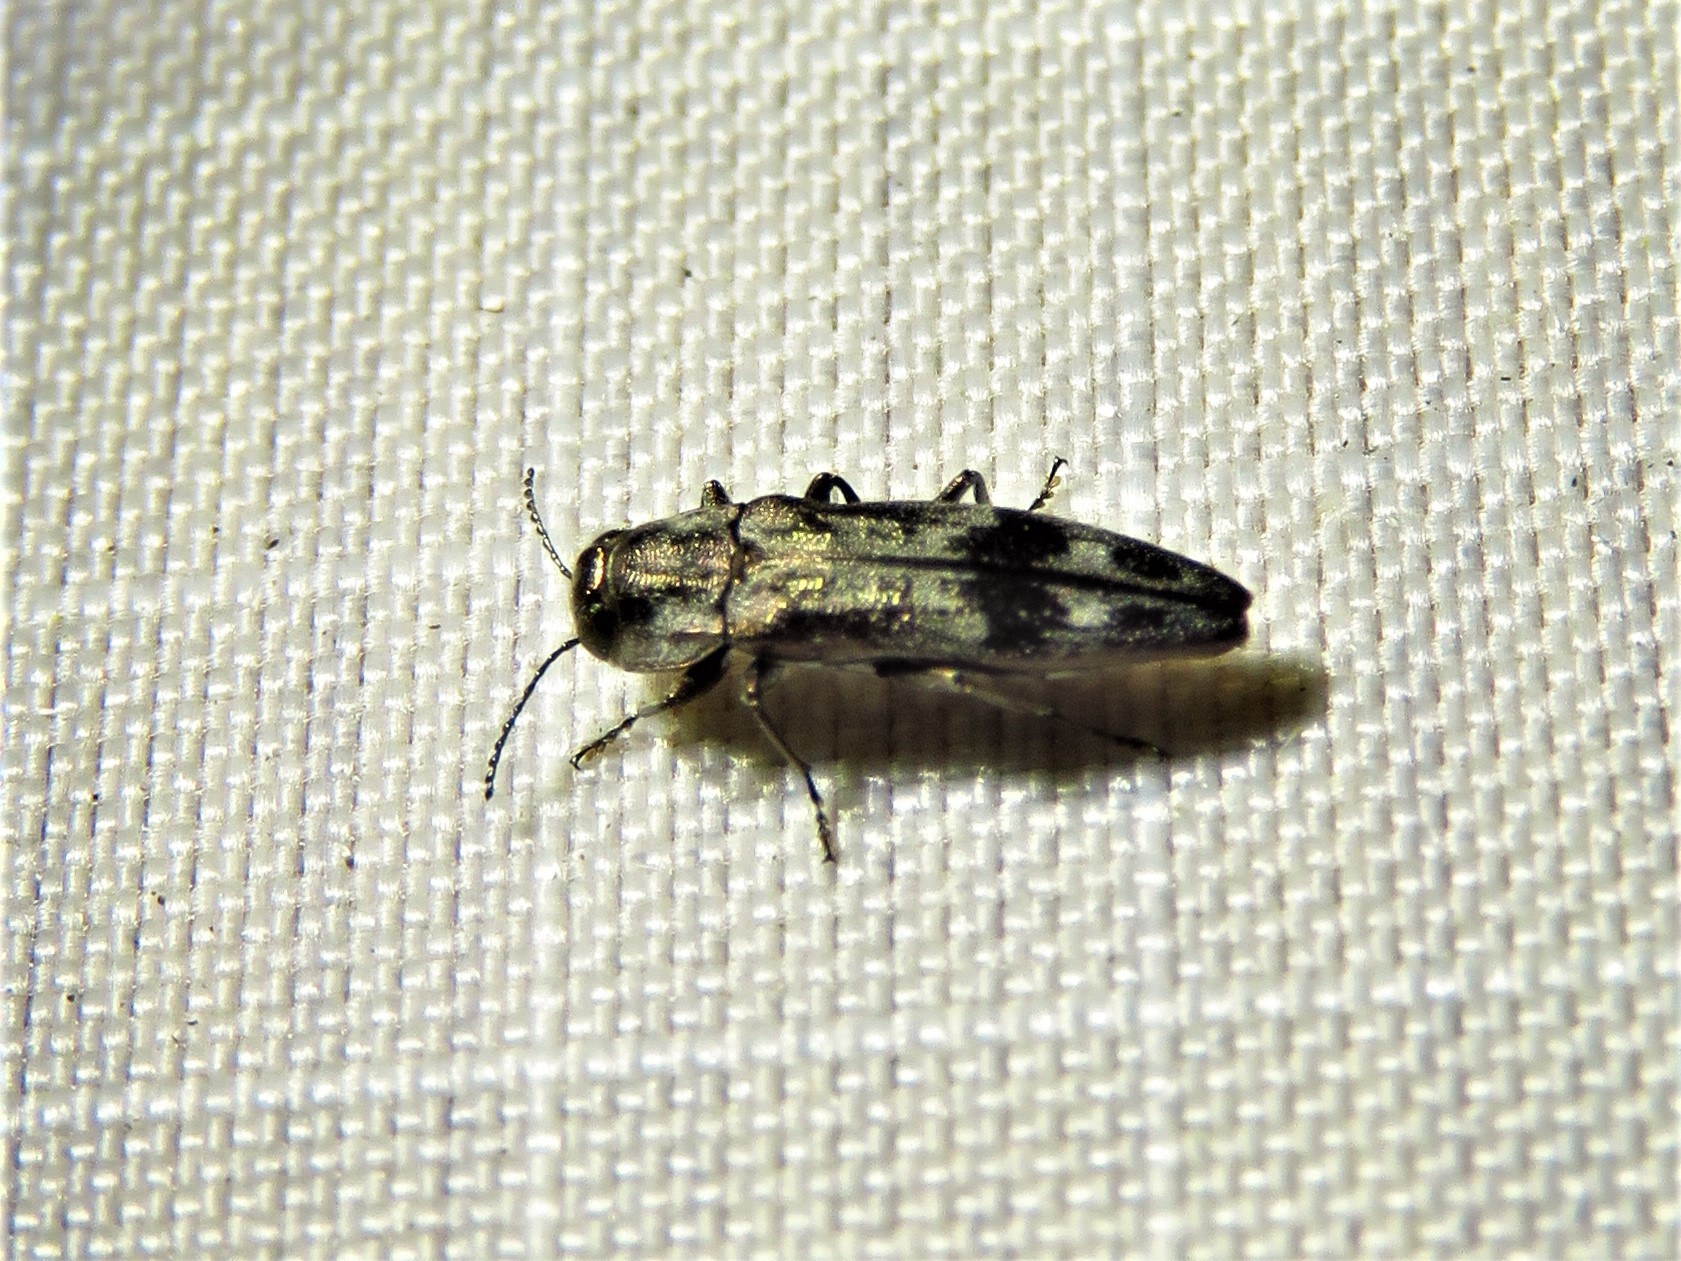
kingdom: Animalia
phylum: Arthropoda
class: Insecta
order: Coleoptera
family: Buprestidae
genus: Agrilus
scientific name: Agrilus lecontei
